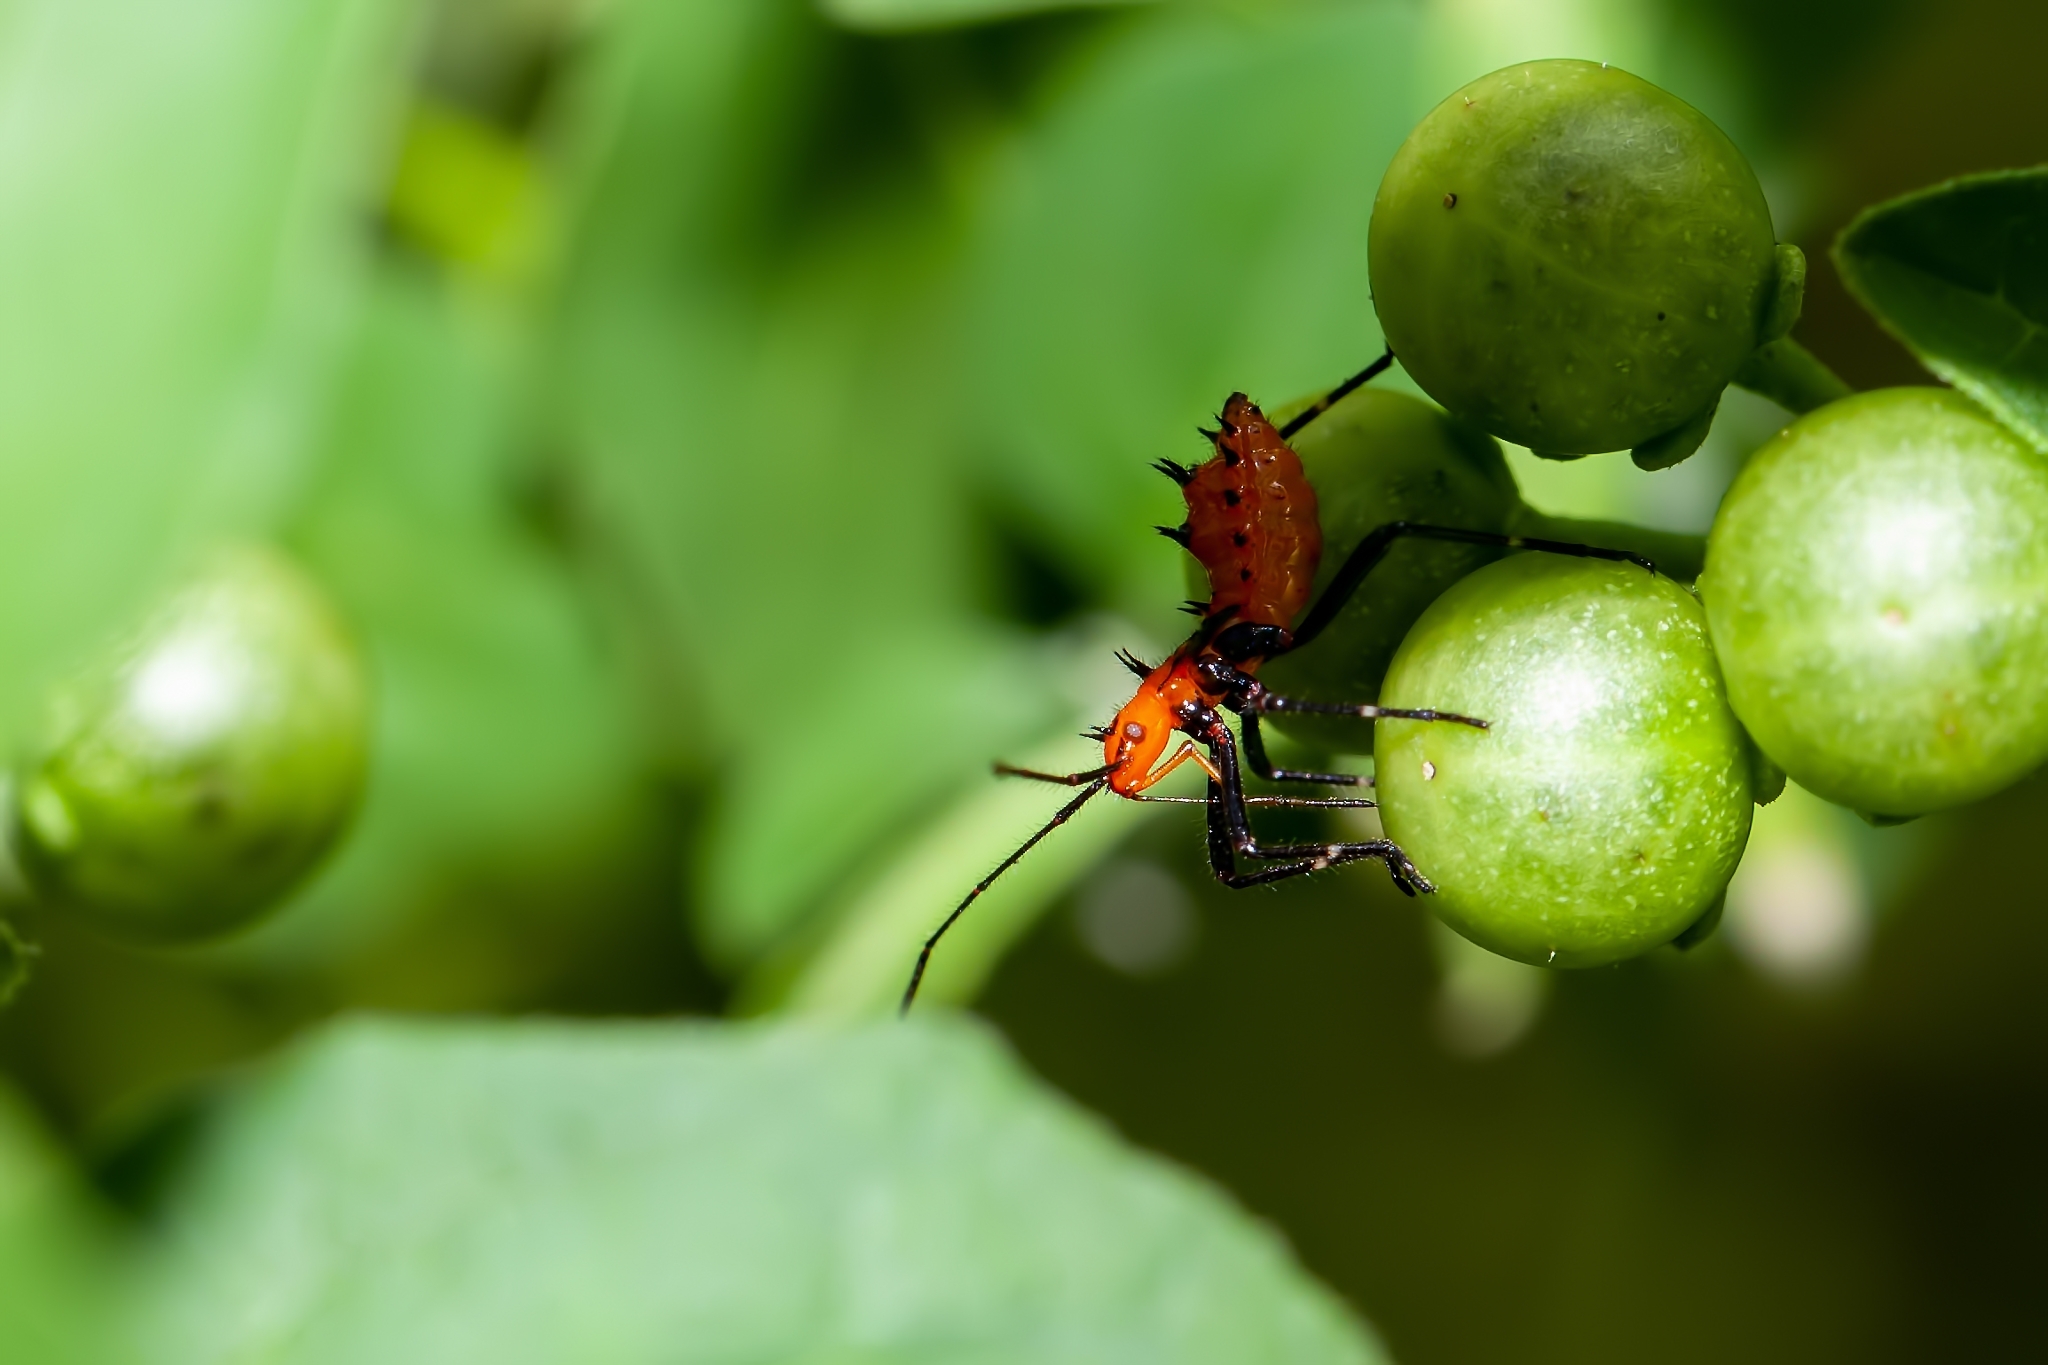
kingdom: Animalia
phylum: Arthropoda
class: Insecta
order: Hemiptera
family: Coreidae
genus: Phthiacnemia
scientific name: Phthiacnemia picta
